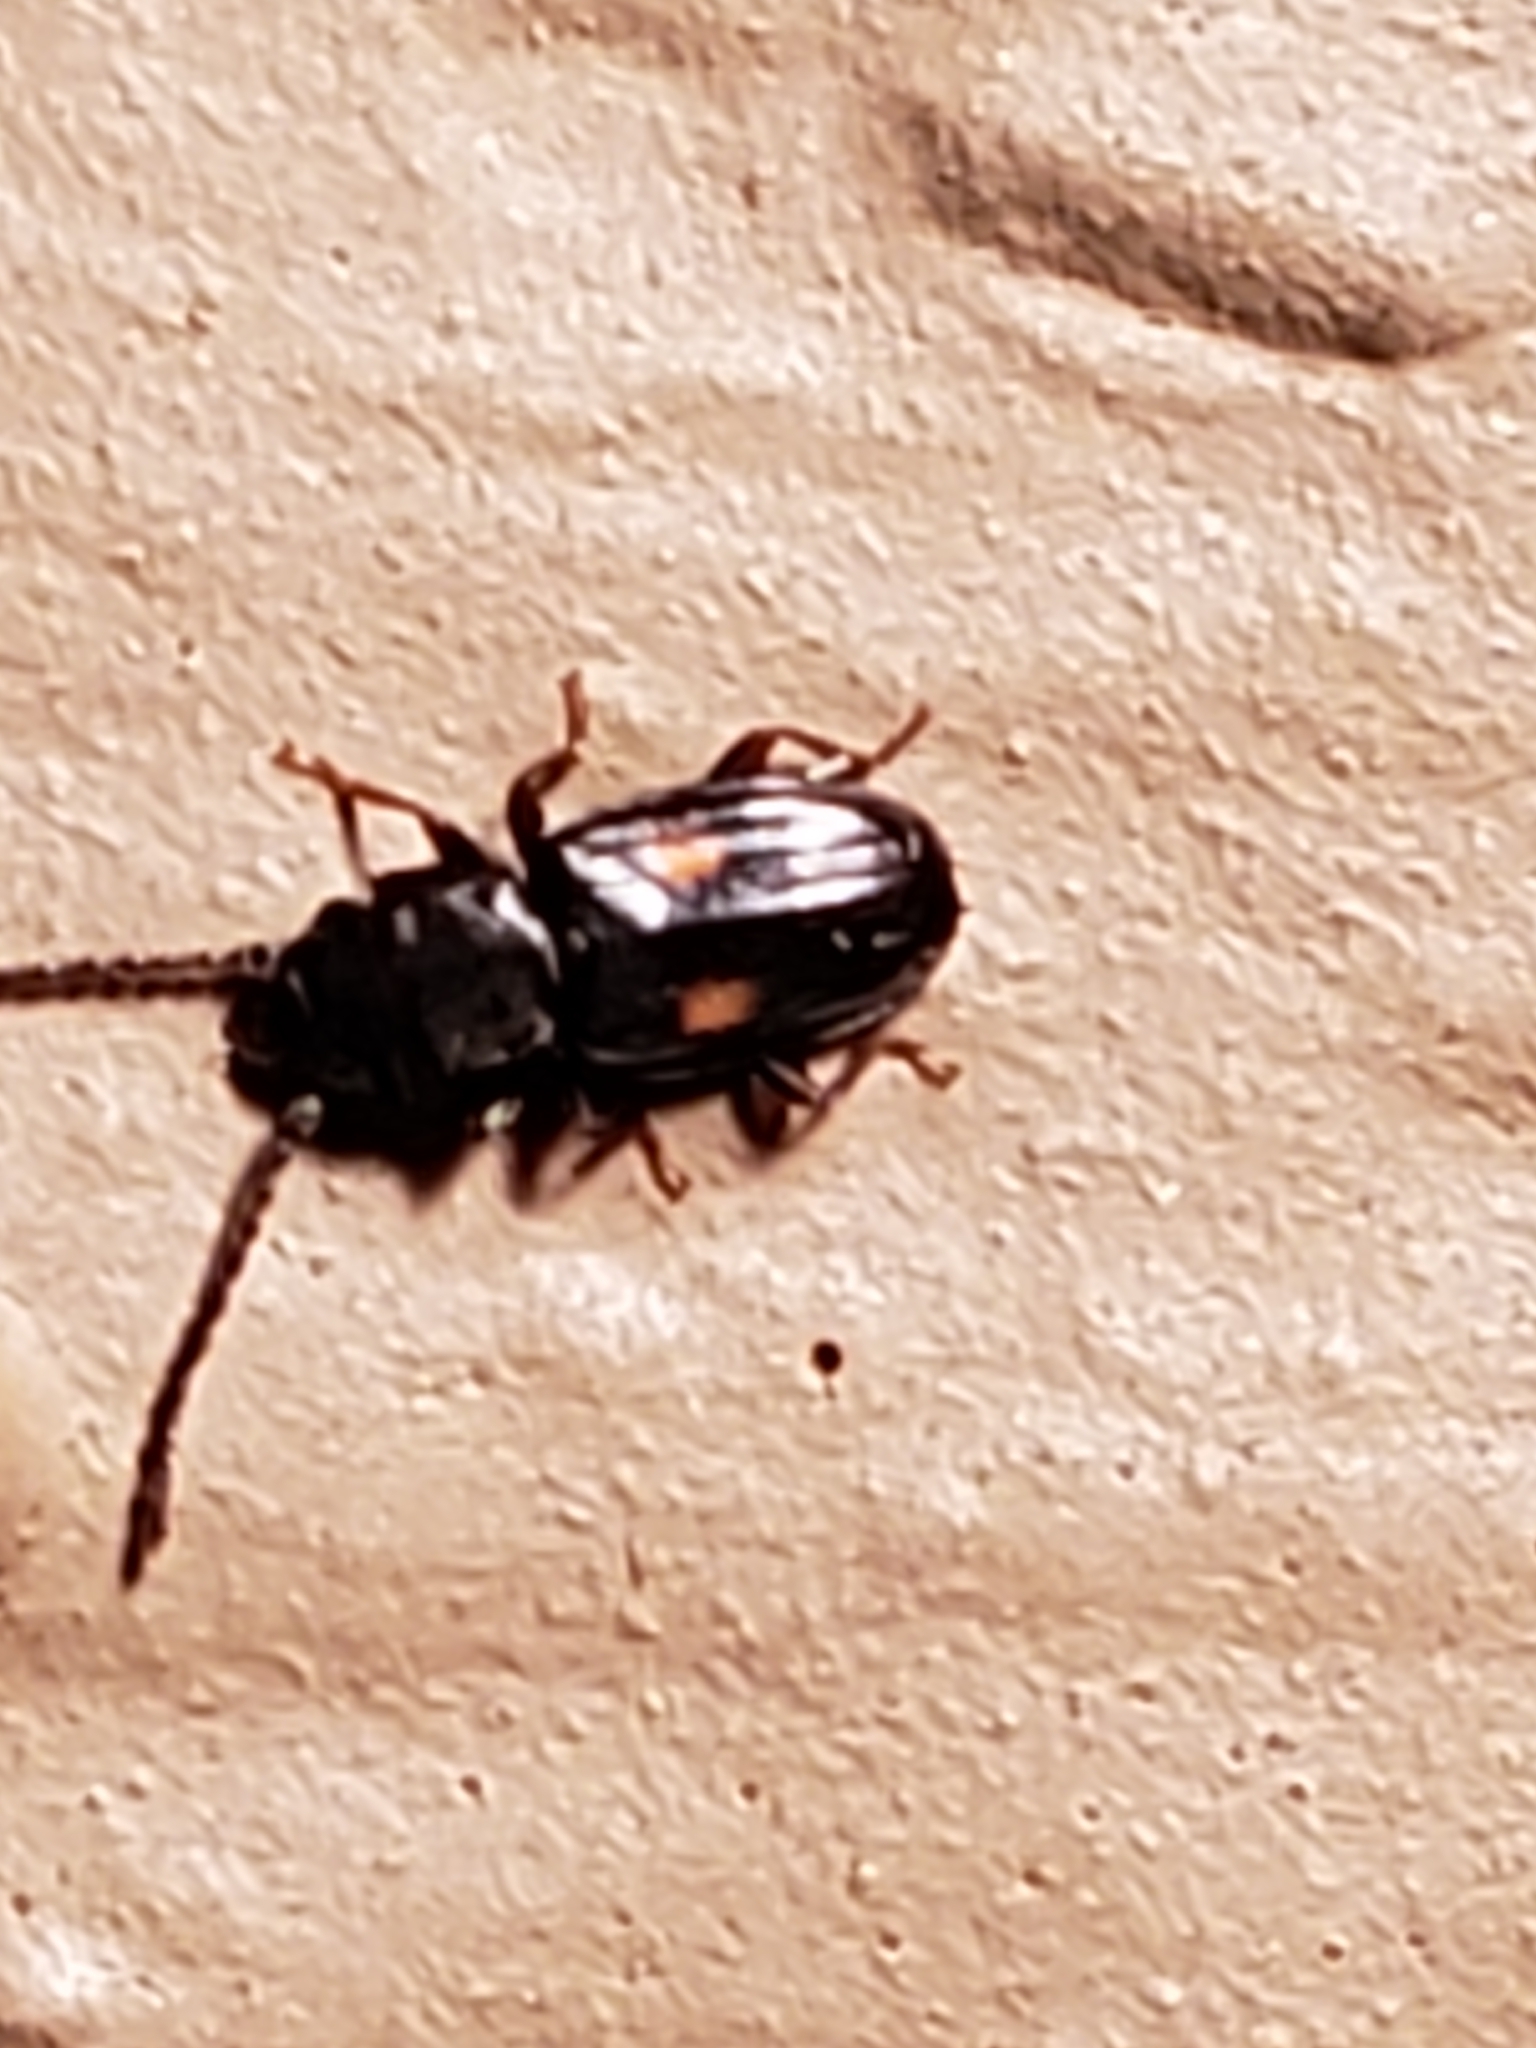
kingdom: Animalia
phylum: Arthropoda
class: Insecta
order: Coleoptera
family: Laemophloeidae
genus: Laemophloeus
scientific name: Laemophloeus fasciatus
